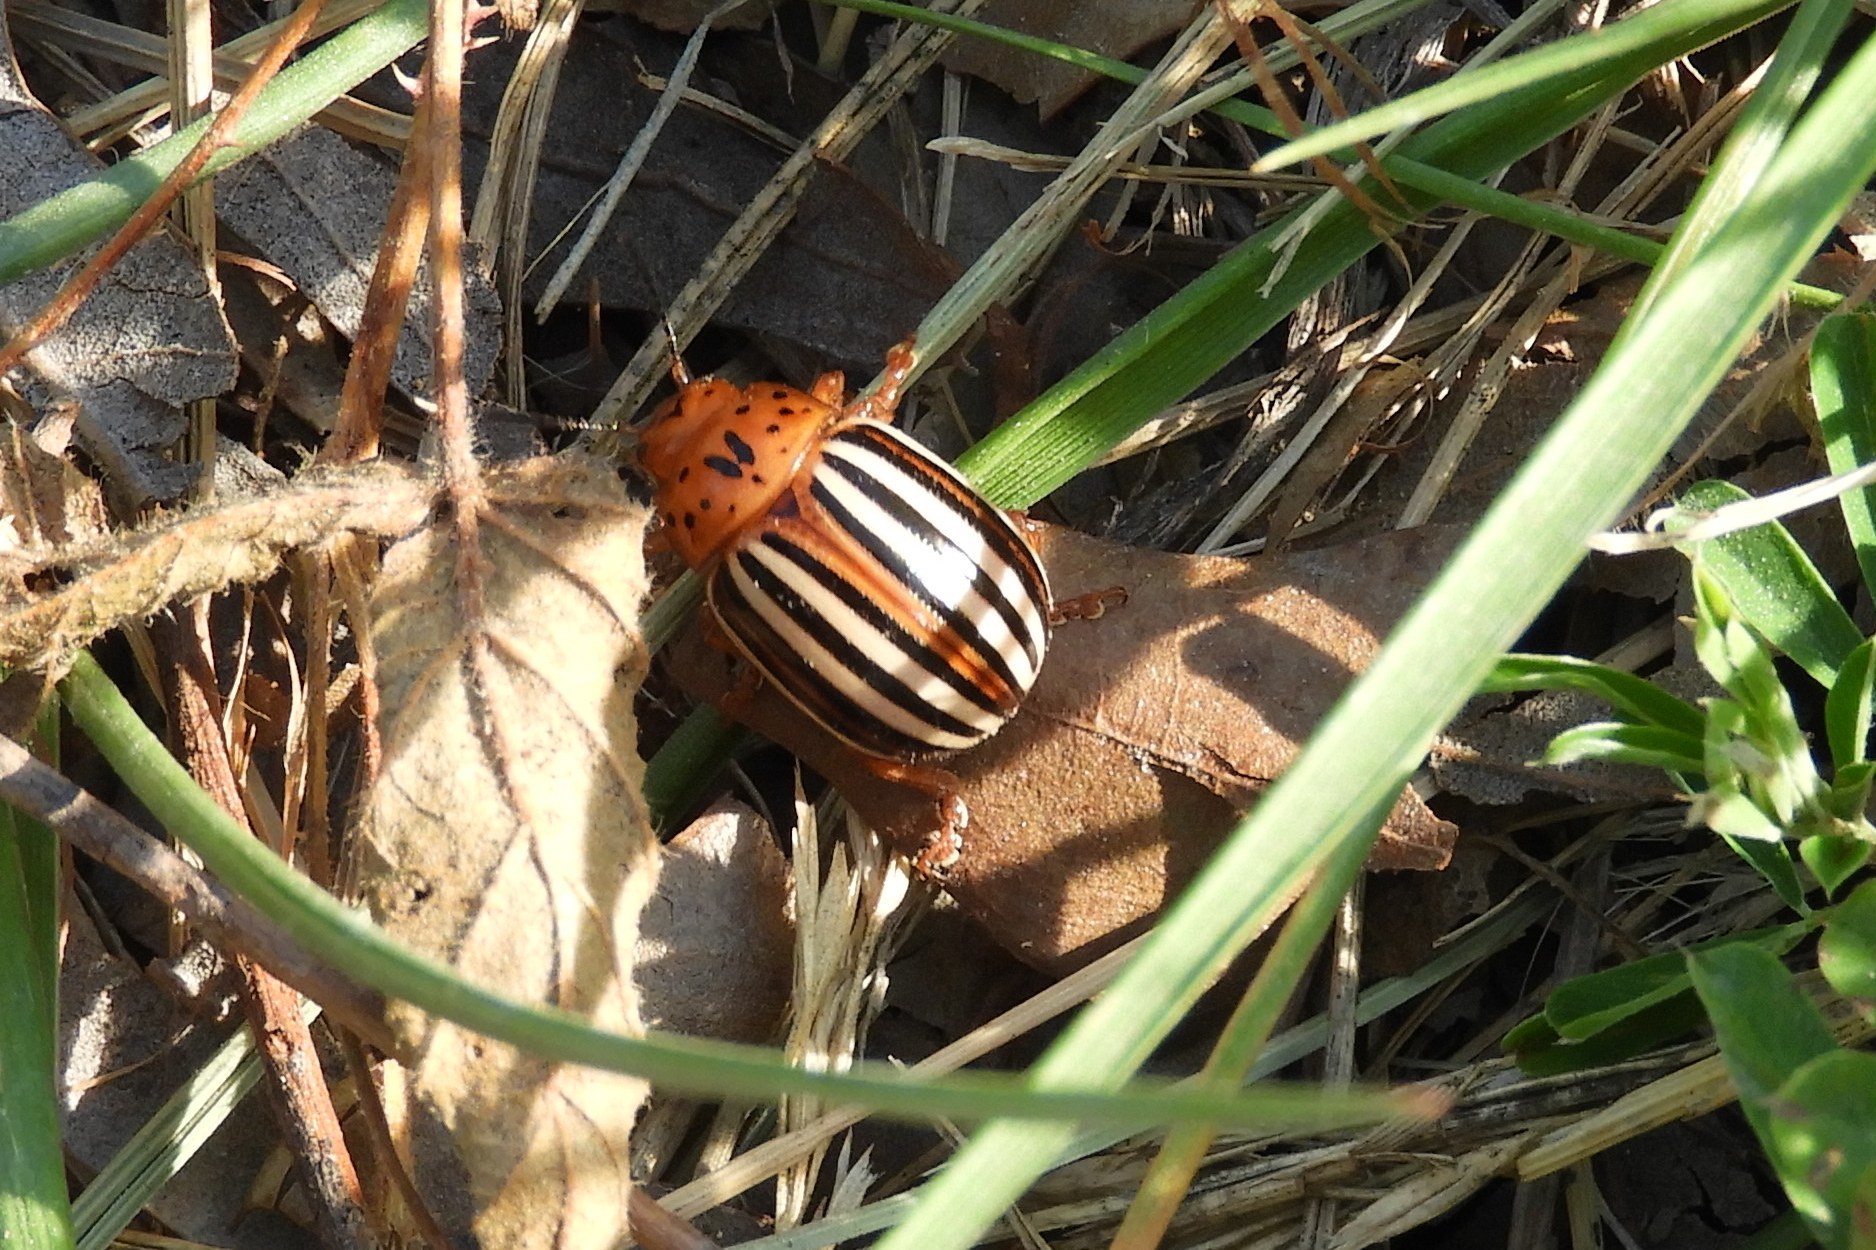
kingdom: Animalia
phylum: Arthropoda
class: Insecta
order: Coleoptera
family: Chrysomelidae
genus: Leptinotarsa
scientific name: Leptinotarsa juncta
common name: False potato beetle
